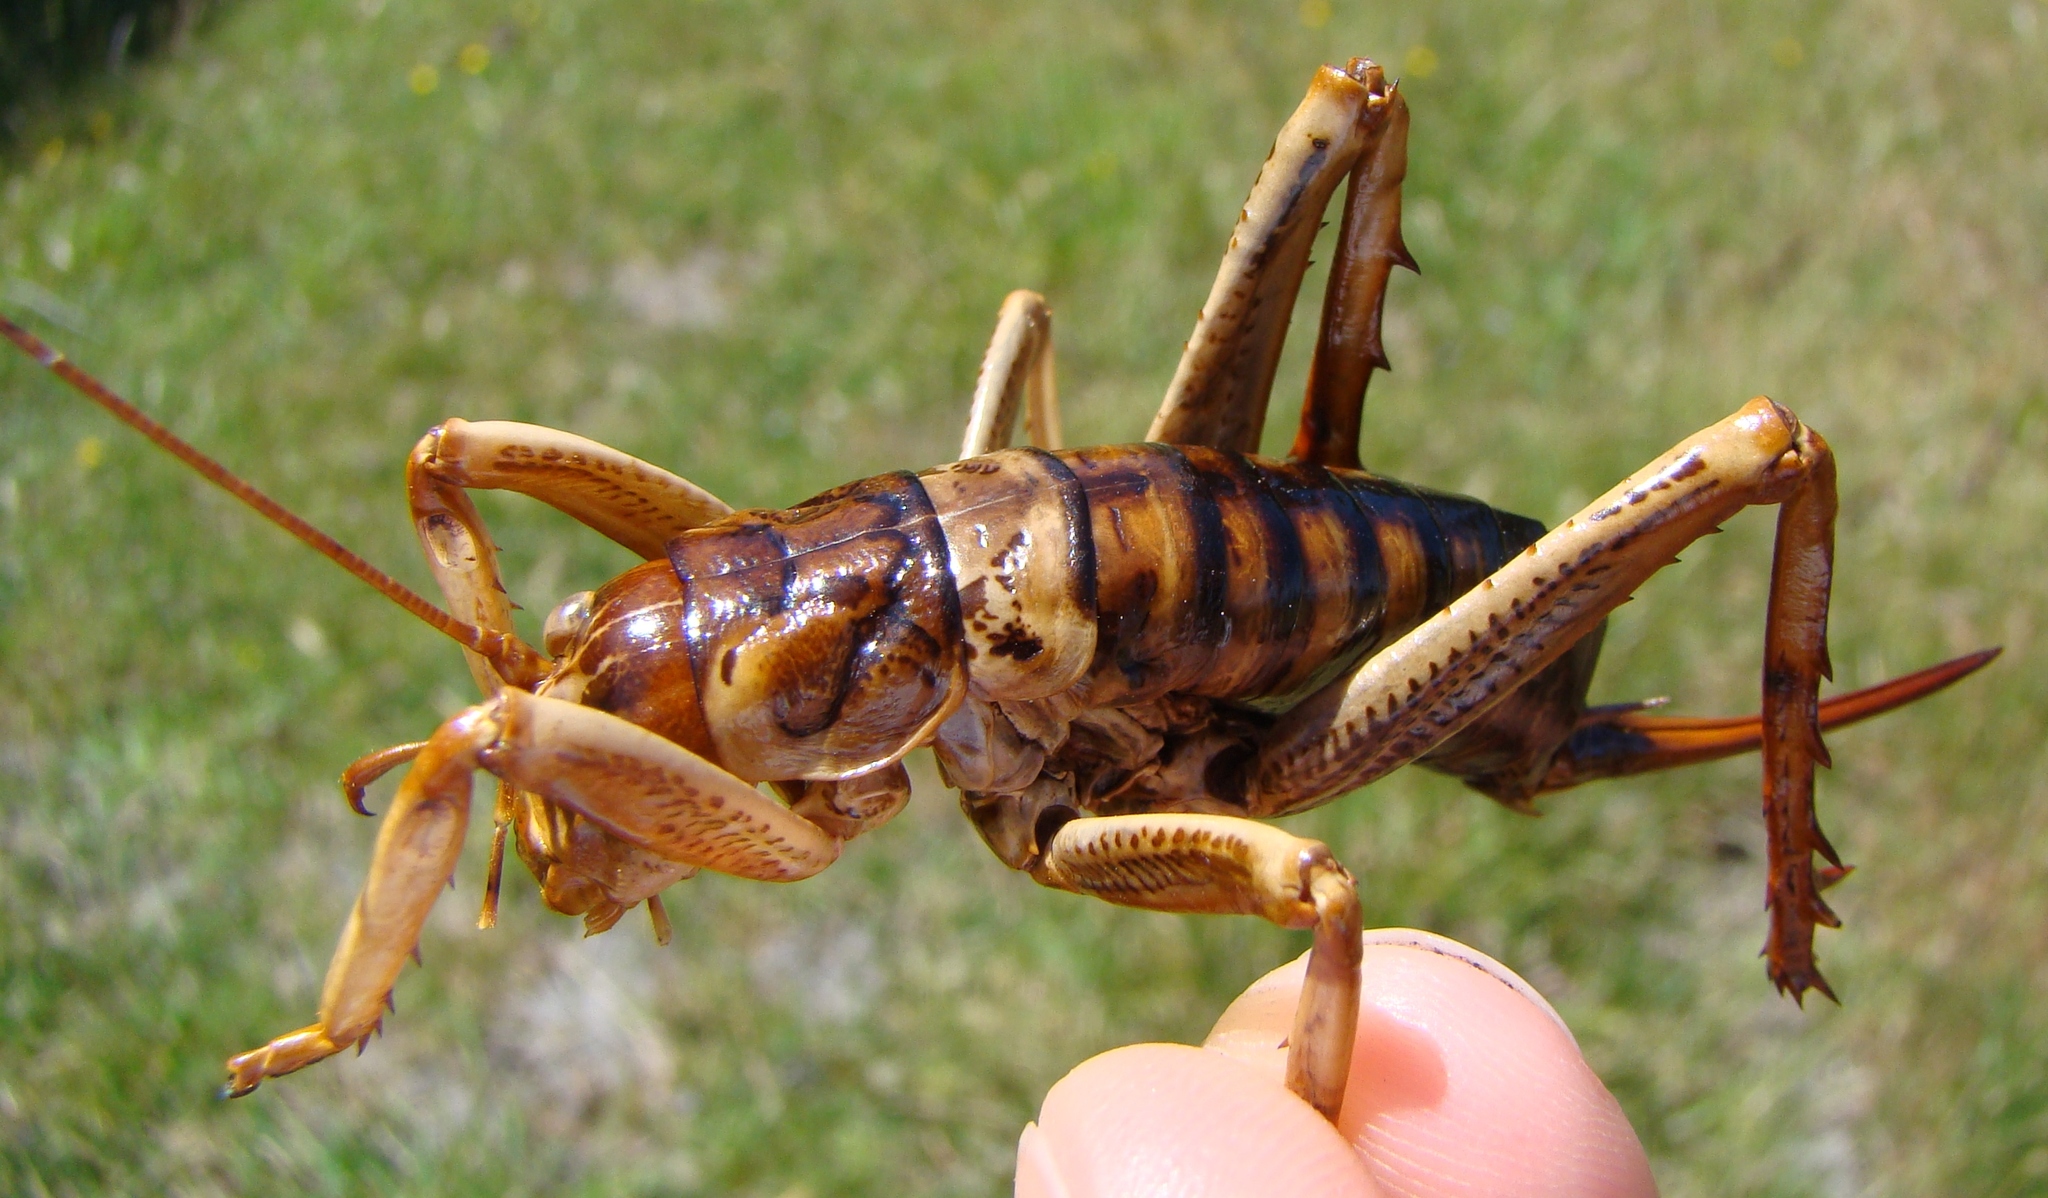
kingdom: Animalia
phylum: Arthropoda
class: Insecta
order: Orthoptera
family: Anostostomatidae
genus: Hemideina
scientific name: Hemideina crassidens
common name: Wellington tree weta
